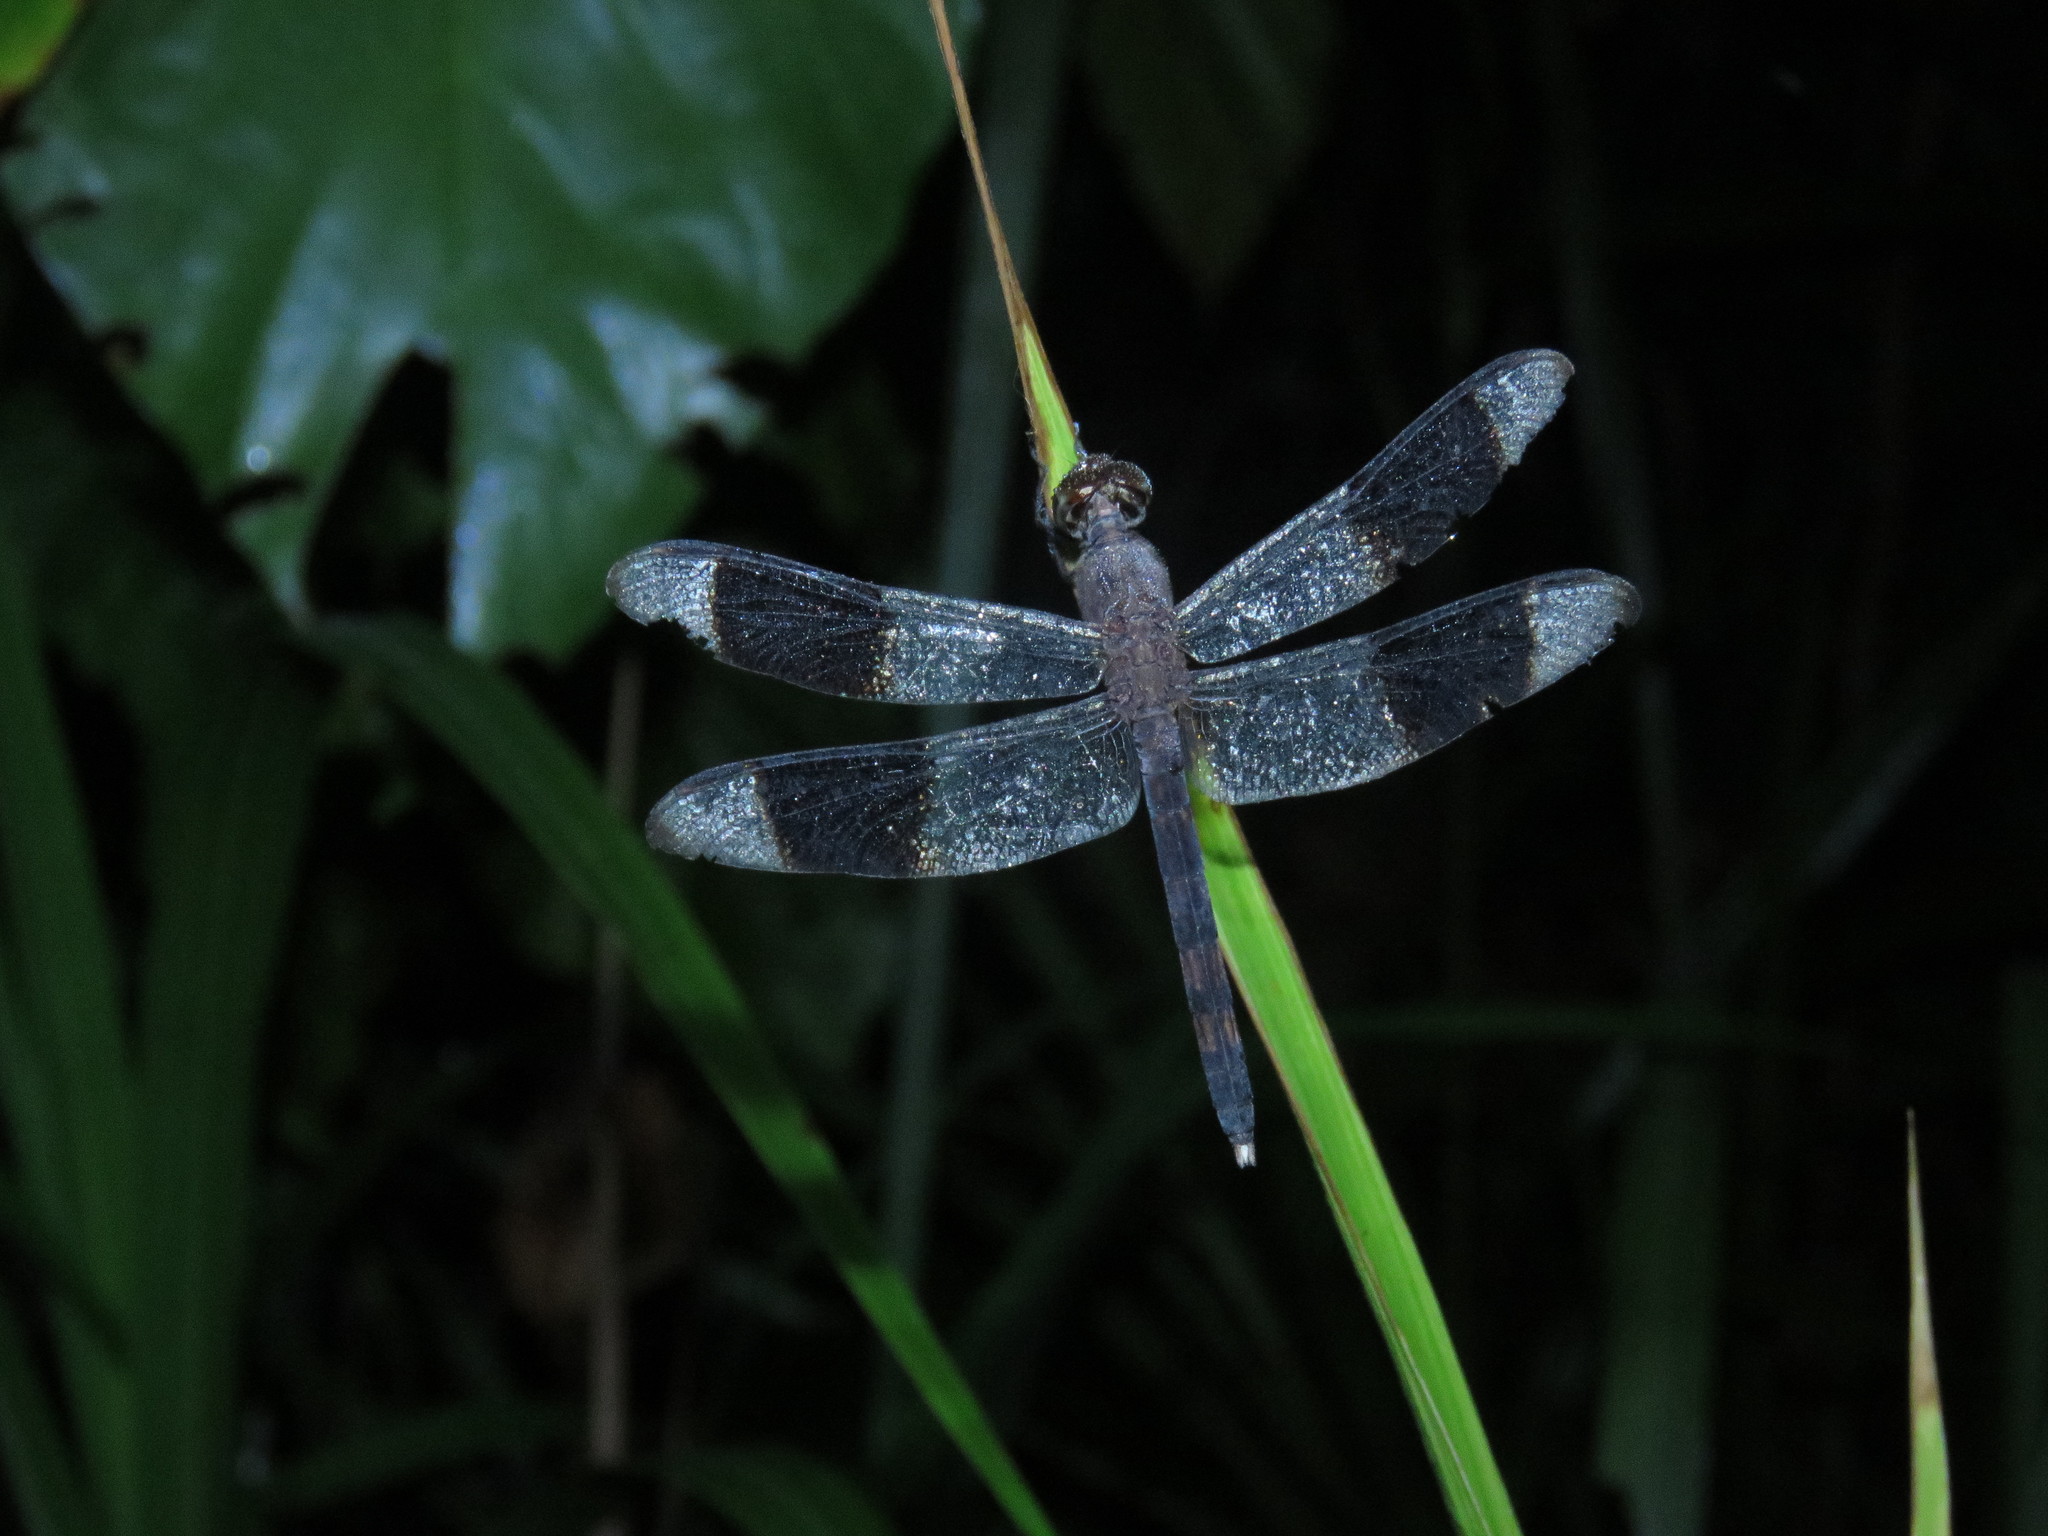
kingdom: Animalia
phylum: Arthropoda
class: Insecta
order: Odonata
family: Libellulidae
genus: Erythrodiplax
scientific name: Erythrodiplax umbrata
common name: Band-winged dragonlet
